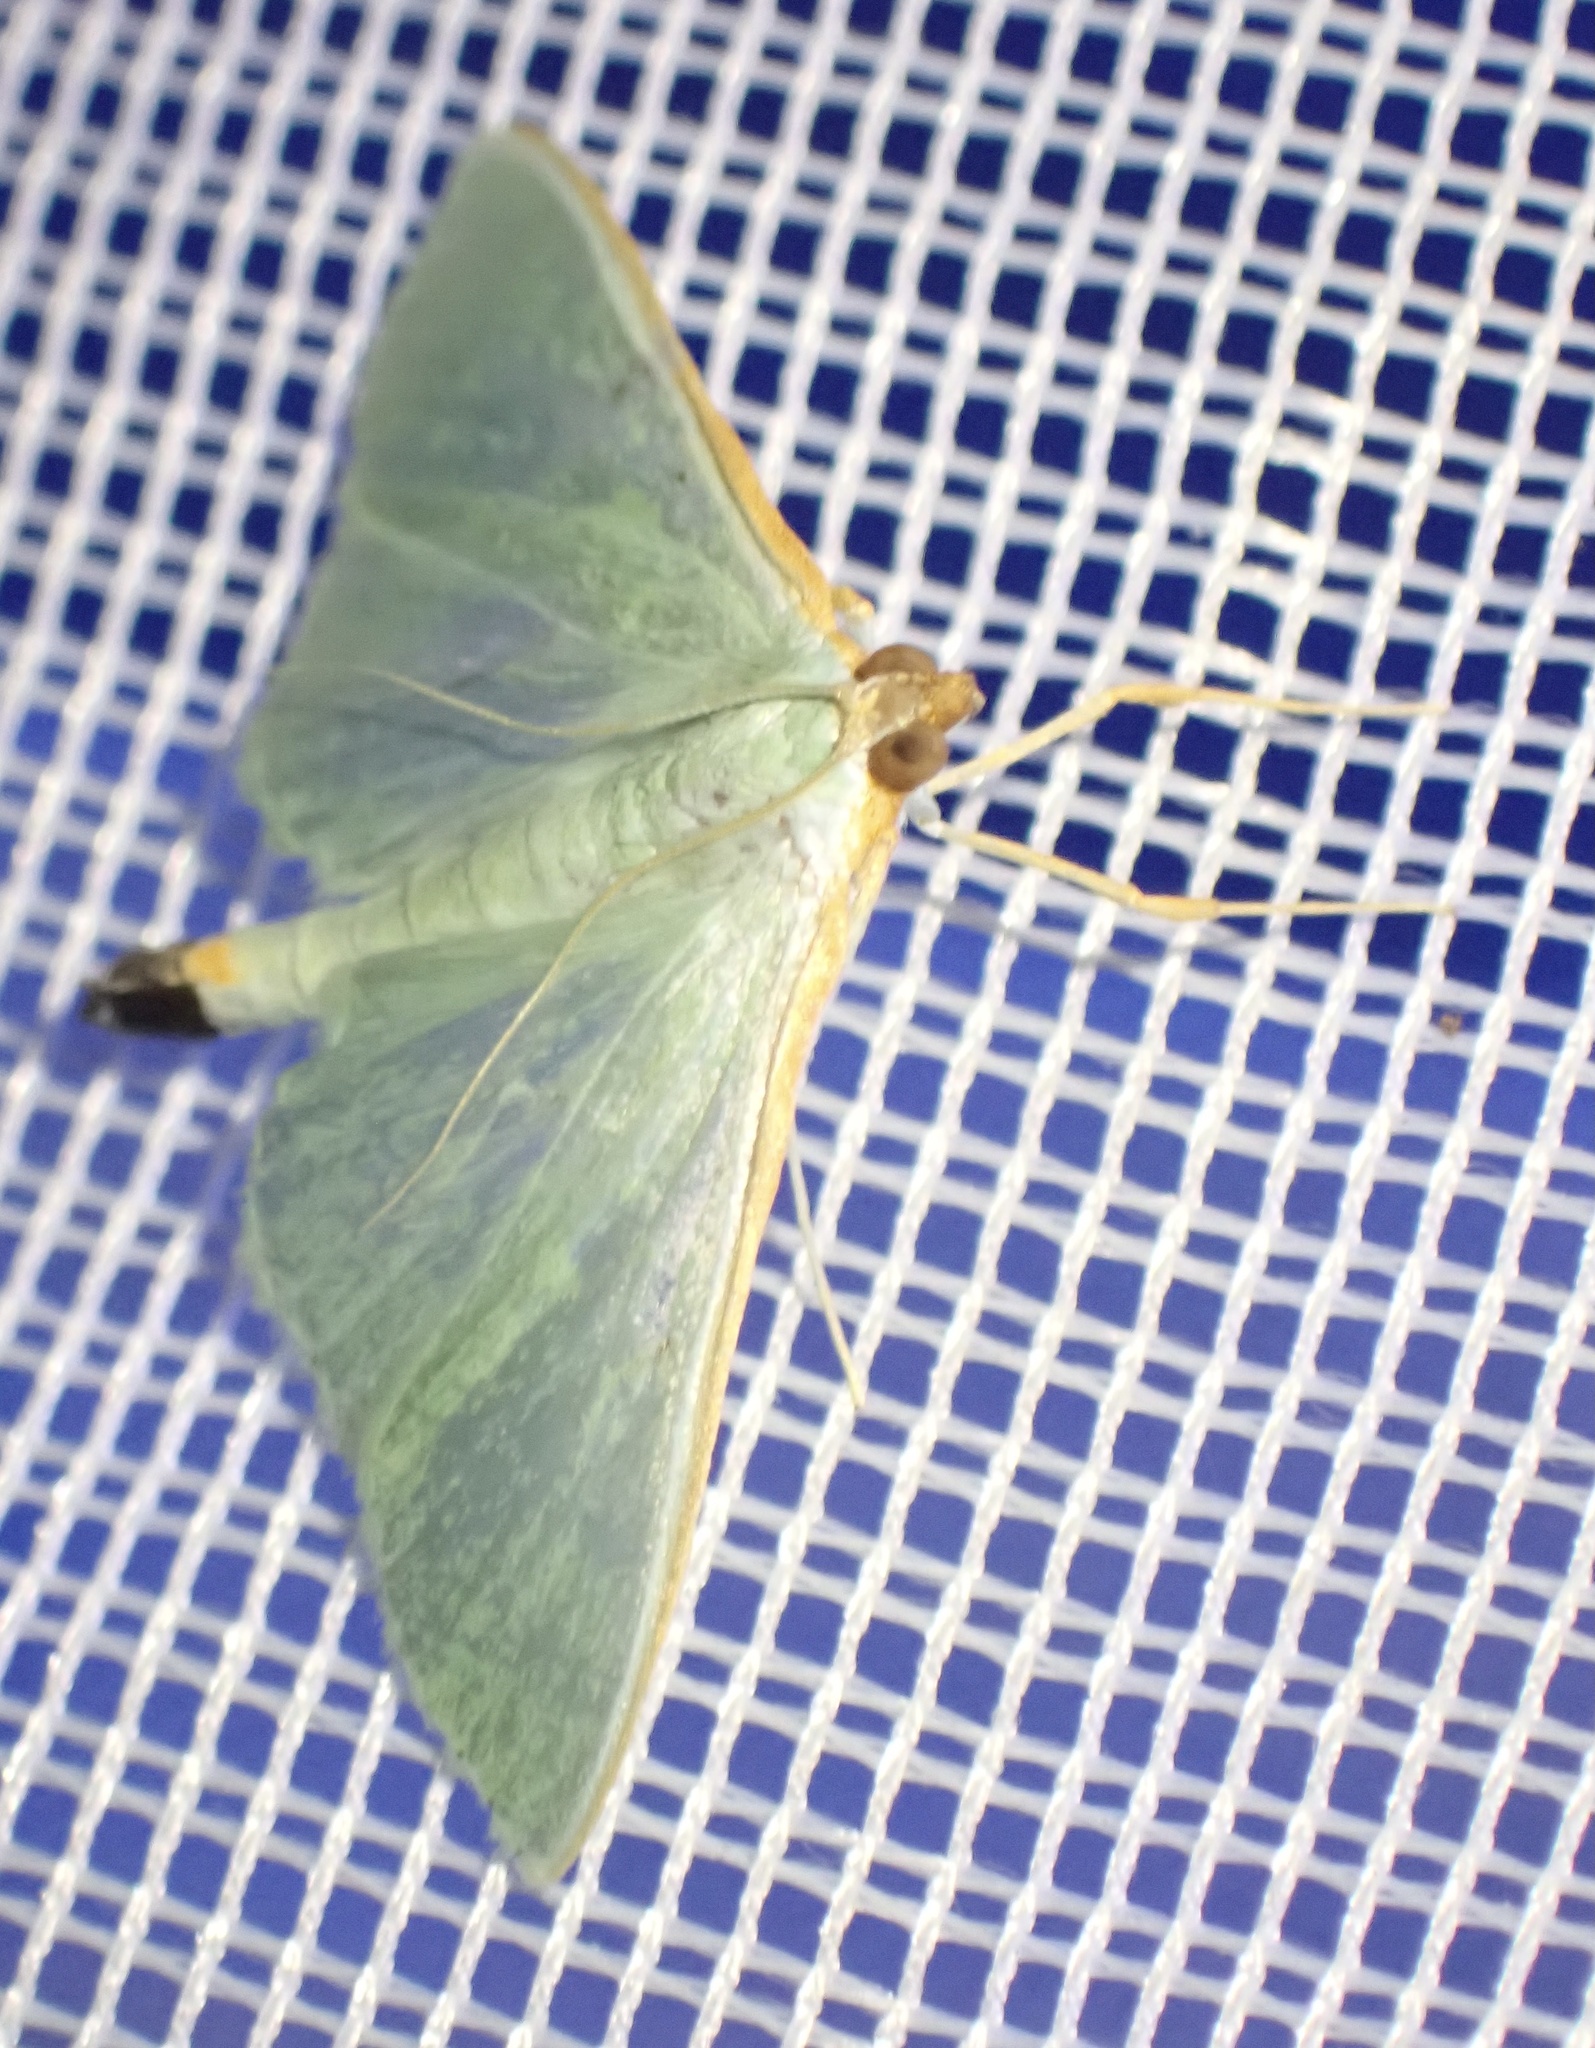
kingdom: Animalia
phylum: Arthropoda
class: Insecta
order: Lepidoptera
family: Crambidae
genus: Stemorrhages
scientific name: Stemorrhages sericea
